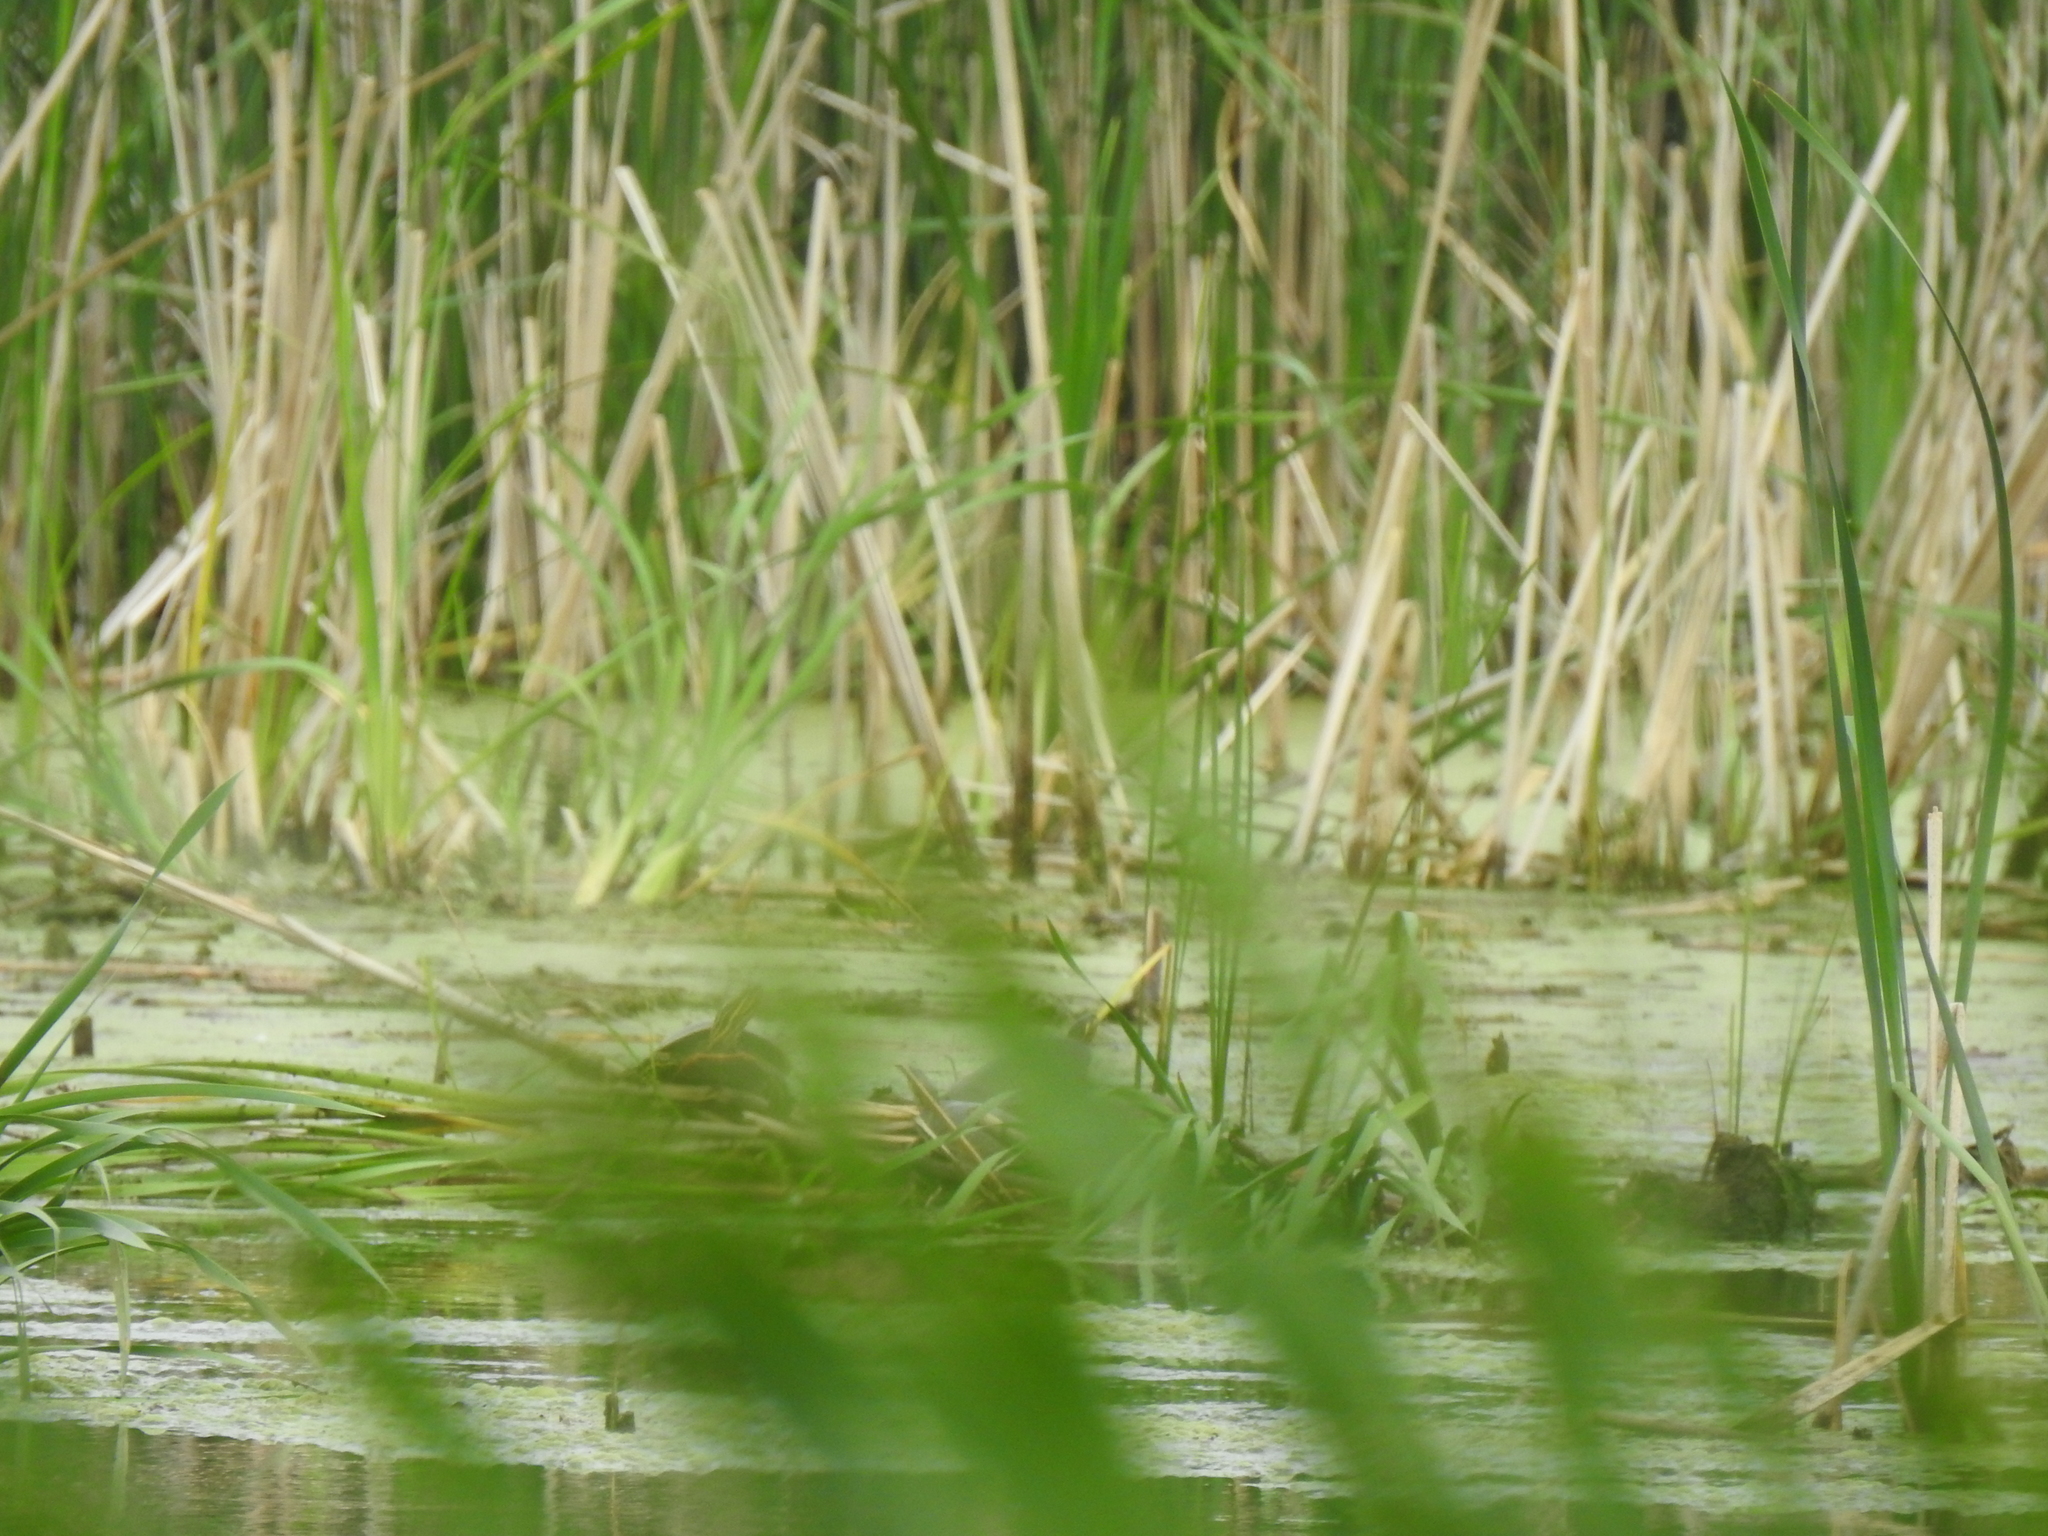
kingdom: Animalia
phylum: Chordata
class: Testudines
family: Emydidae
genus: Chrysemys
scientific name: Chrysemys picta
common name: Painted turtle
